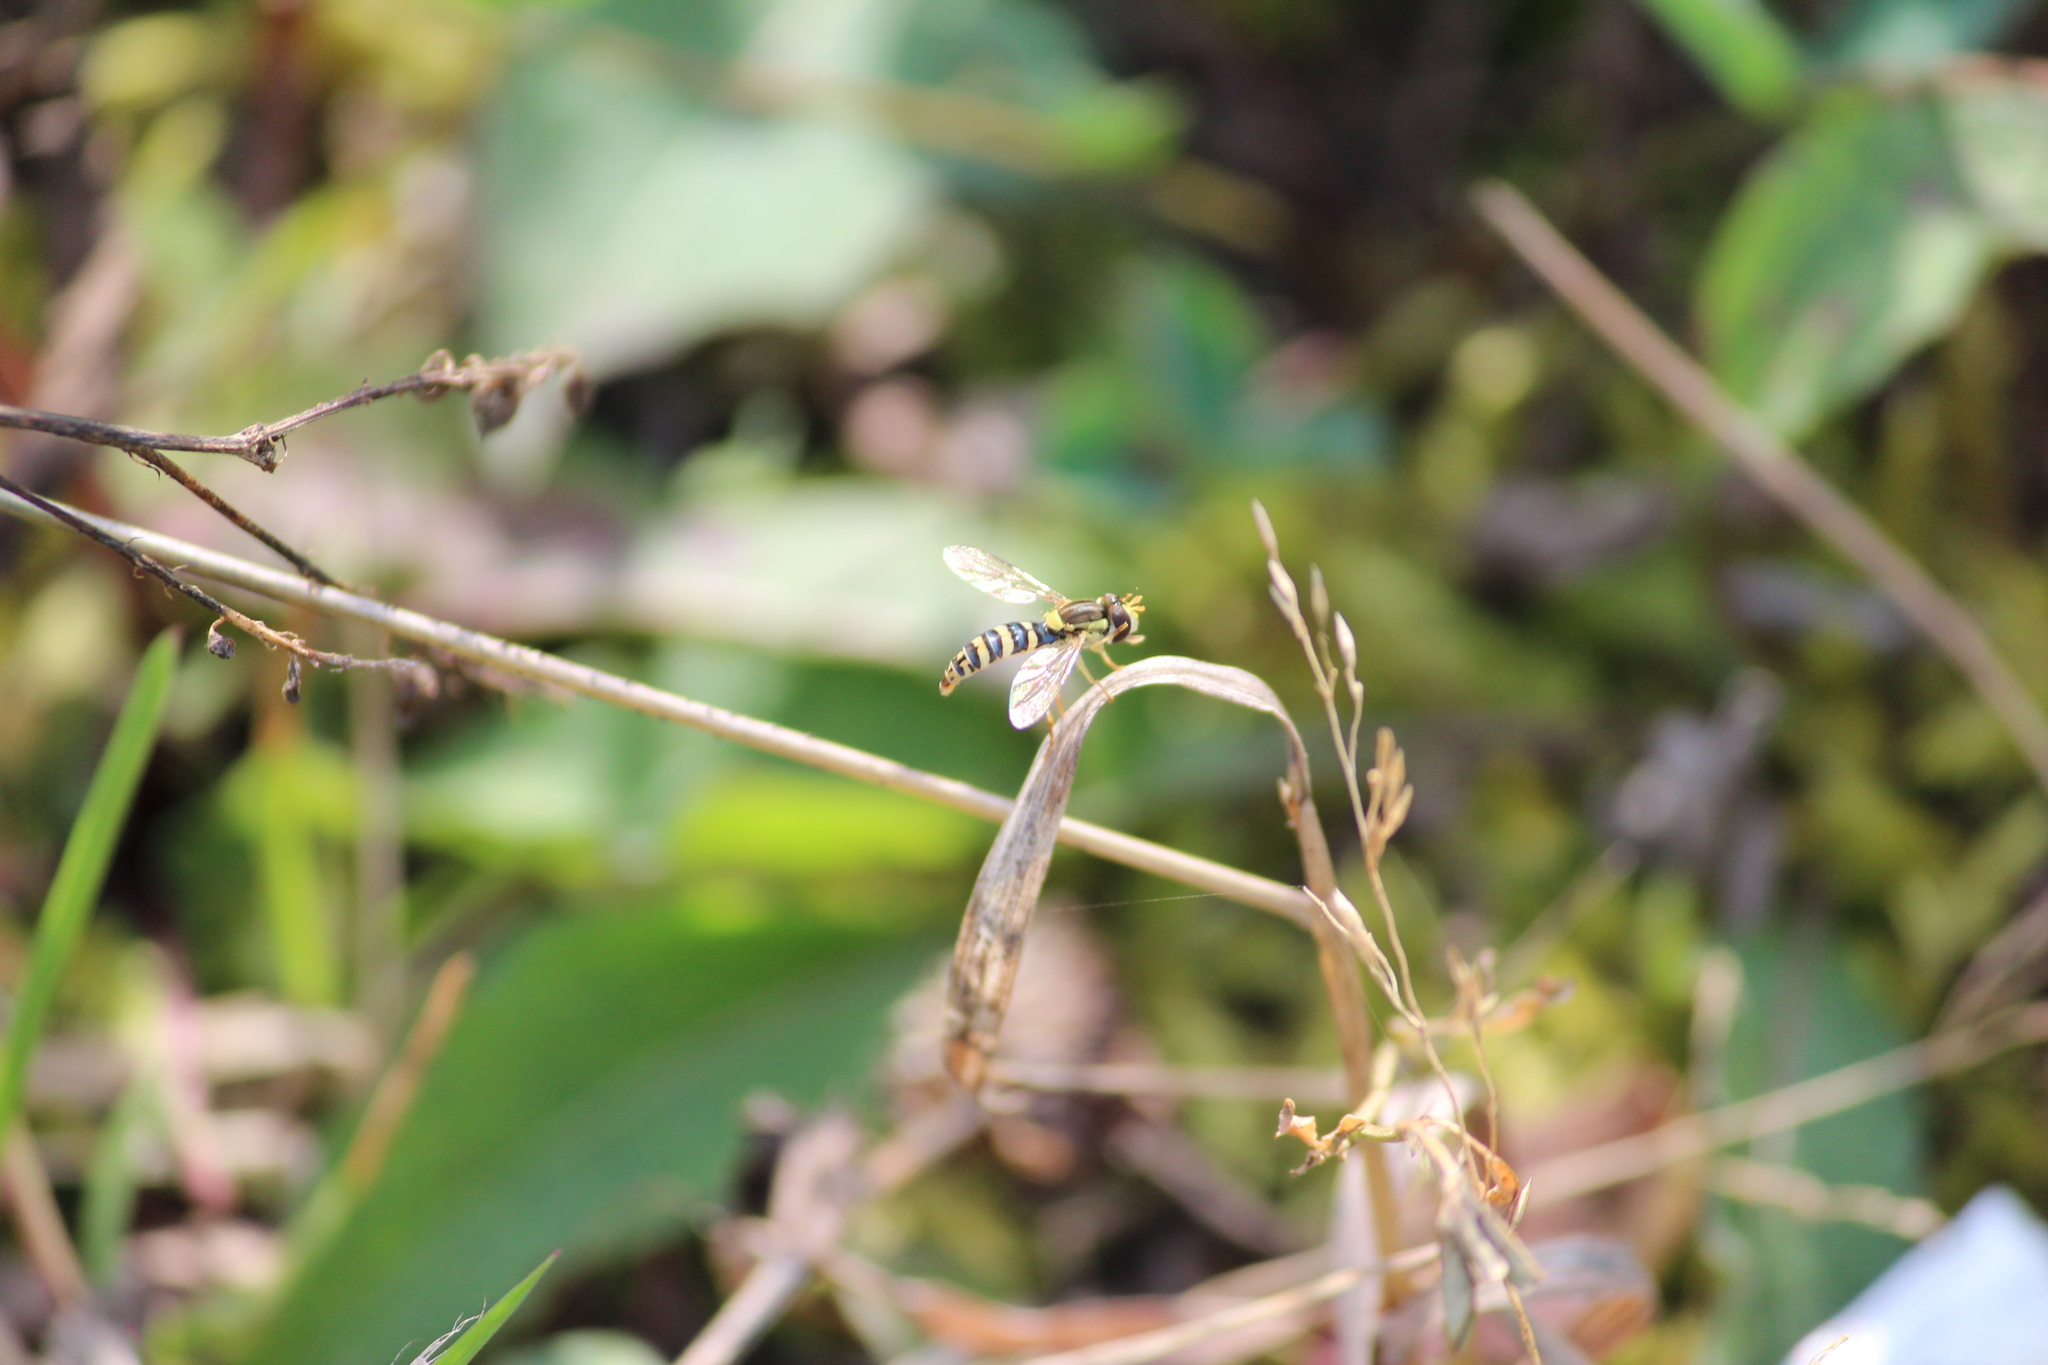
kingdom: Animalia
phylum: Arthropoda
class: Insecta
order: Diptera
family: Syrphidae
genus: Sphaerophoria
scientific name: Sphaerophoria scripta
